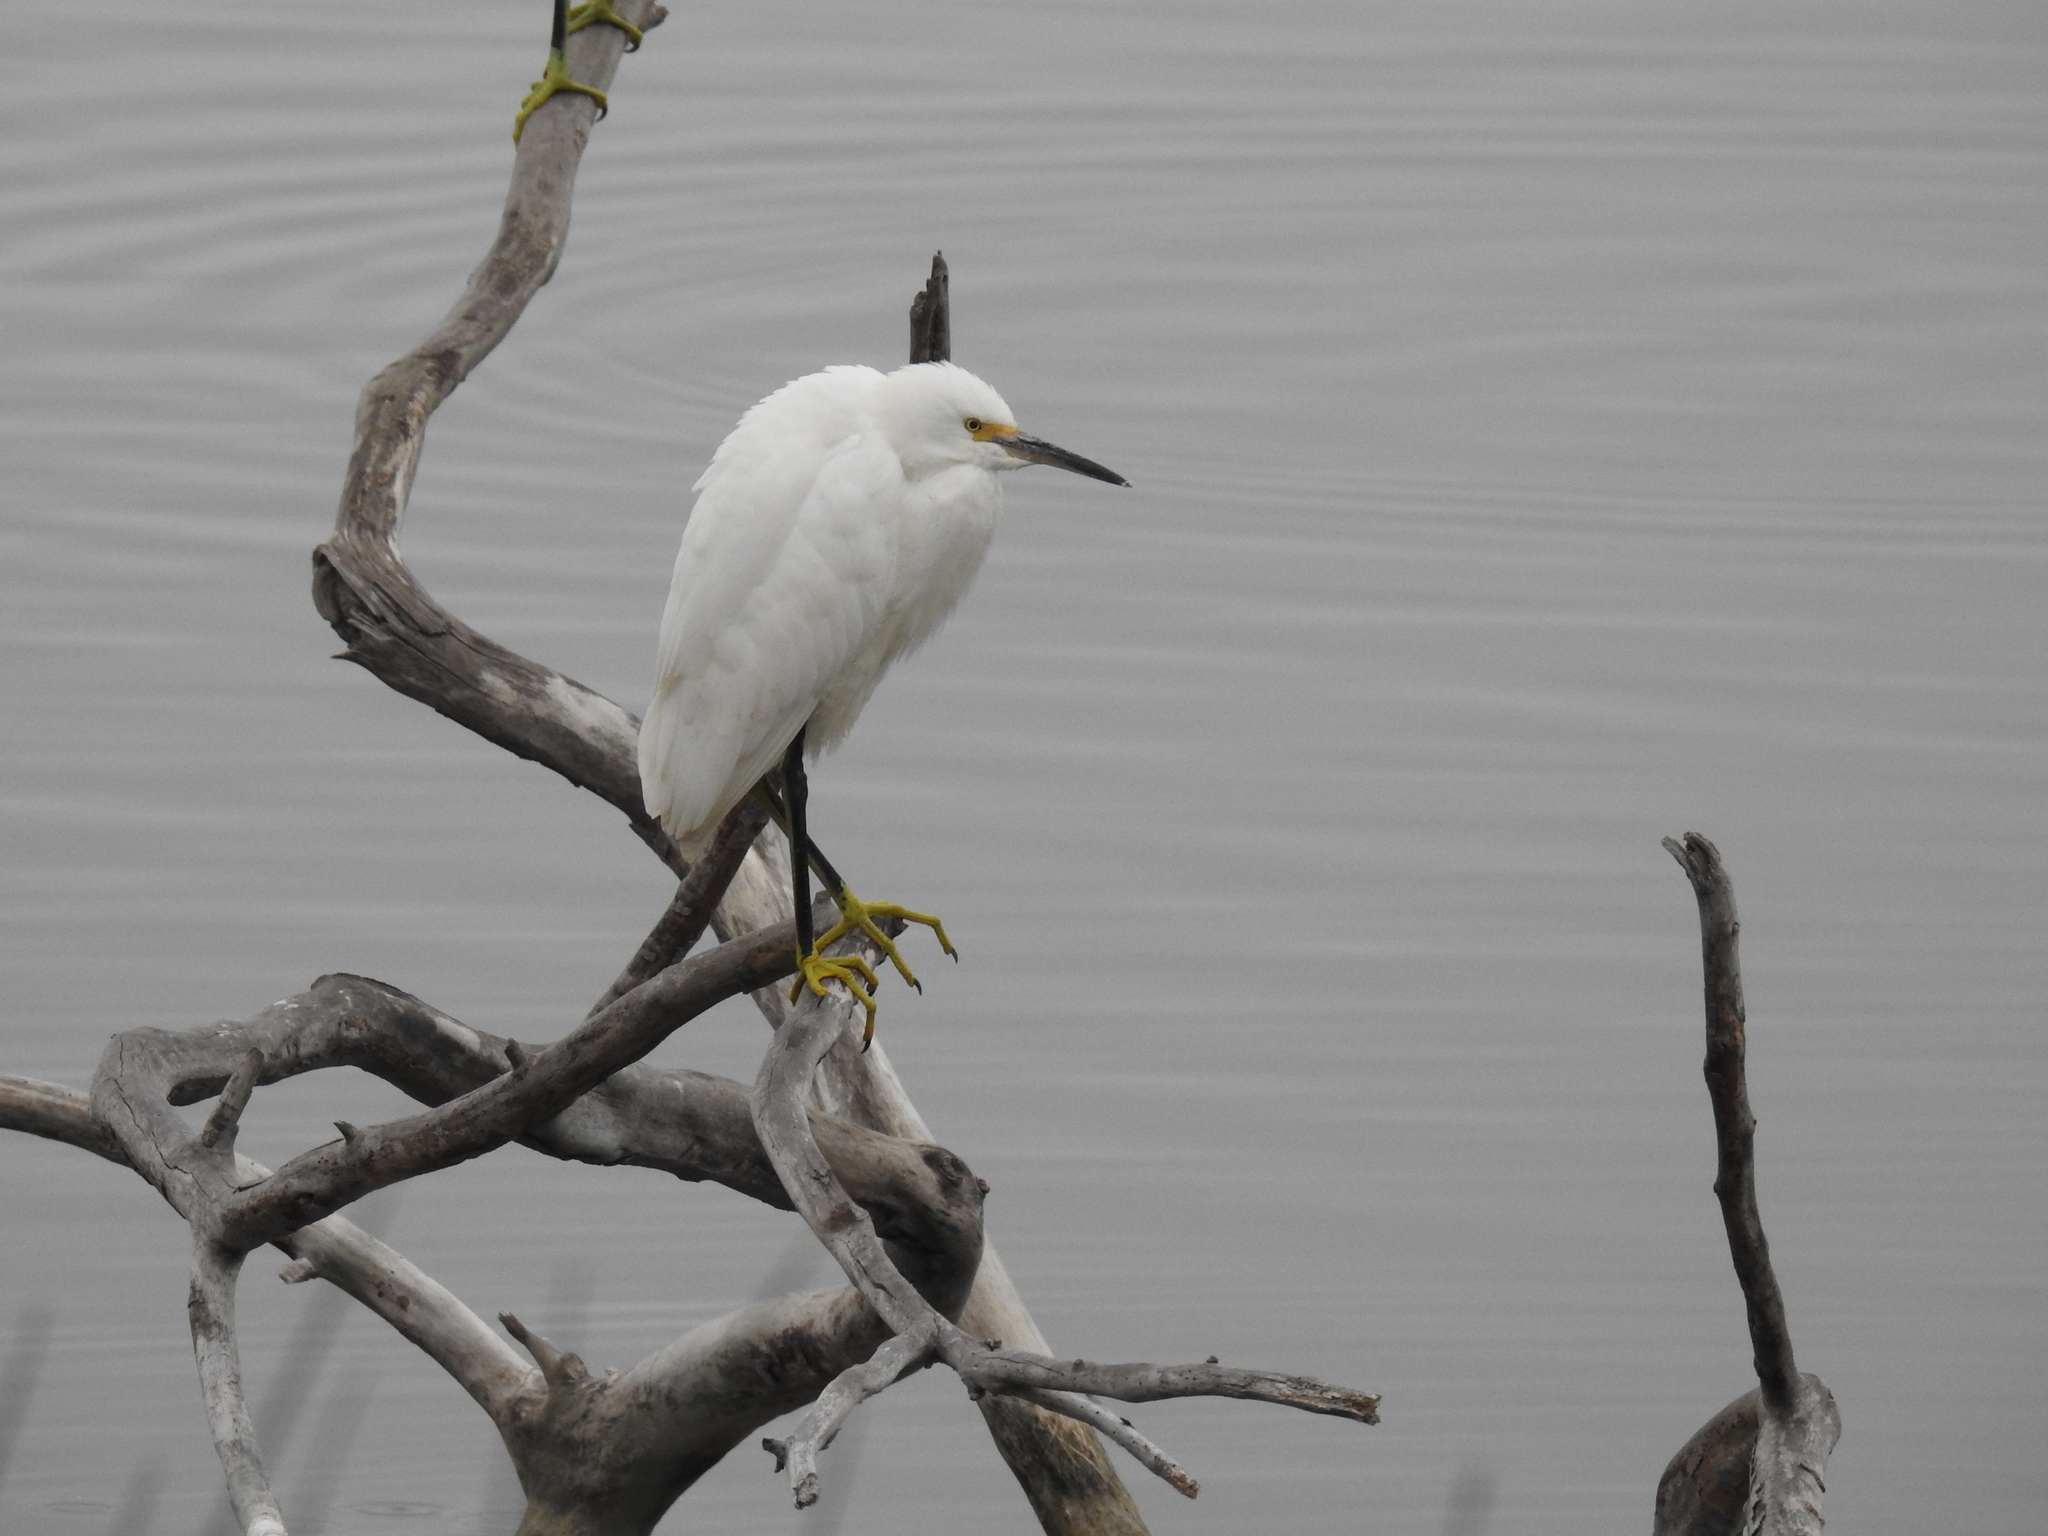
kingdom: Animalia
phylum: Chordata
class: Aves
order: Pelecaniformes
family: Ardeidae
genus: Egretta
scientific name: Egretta thula
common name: Snowy egret
